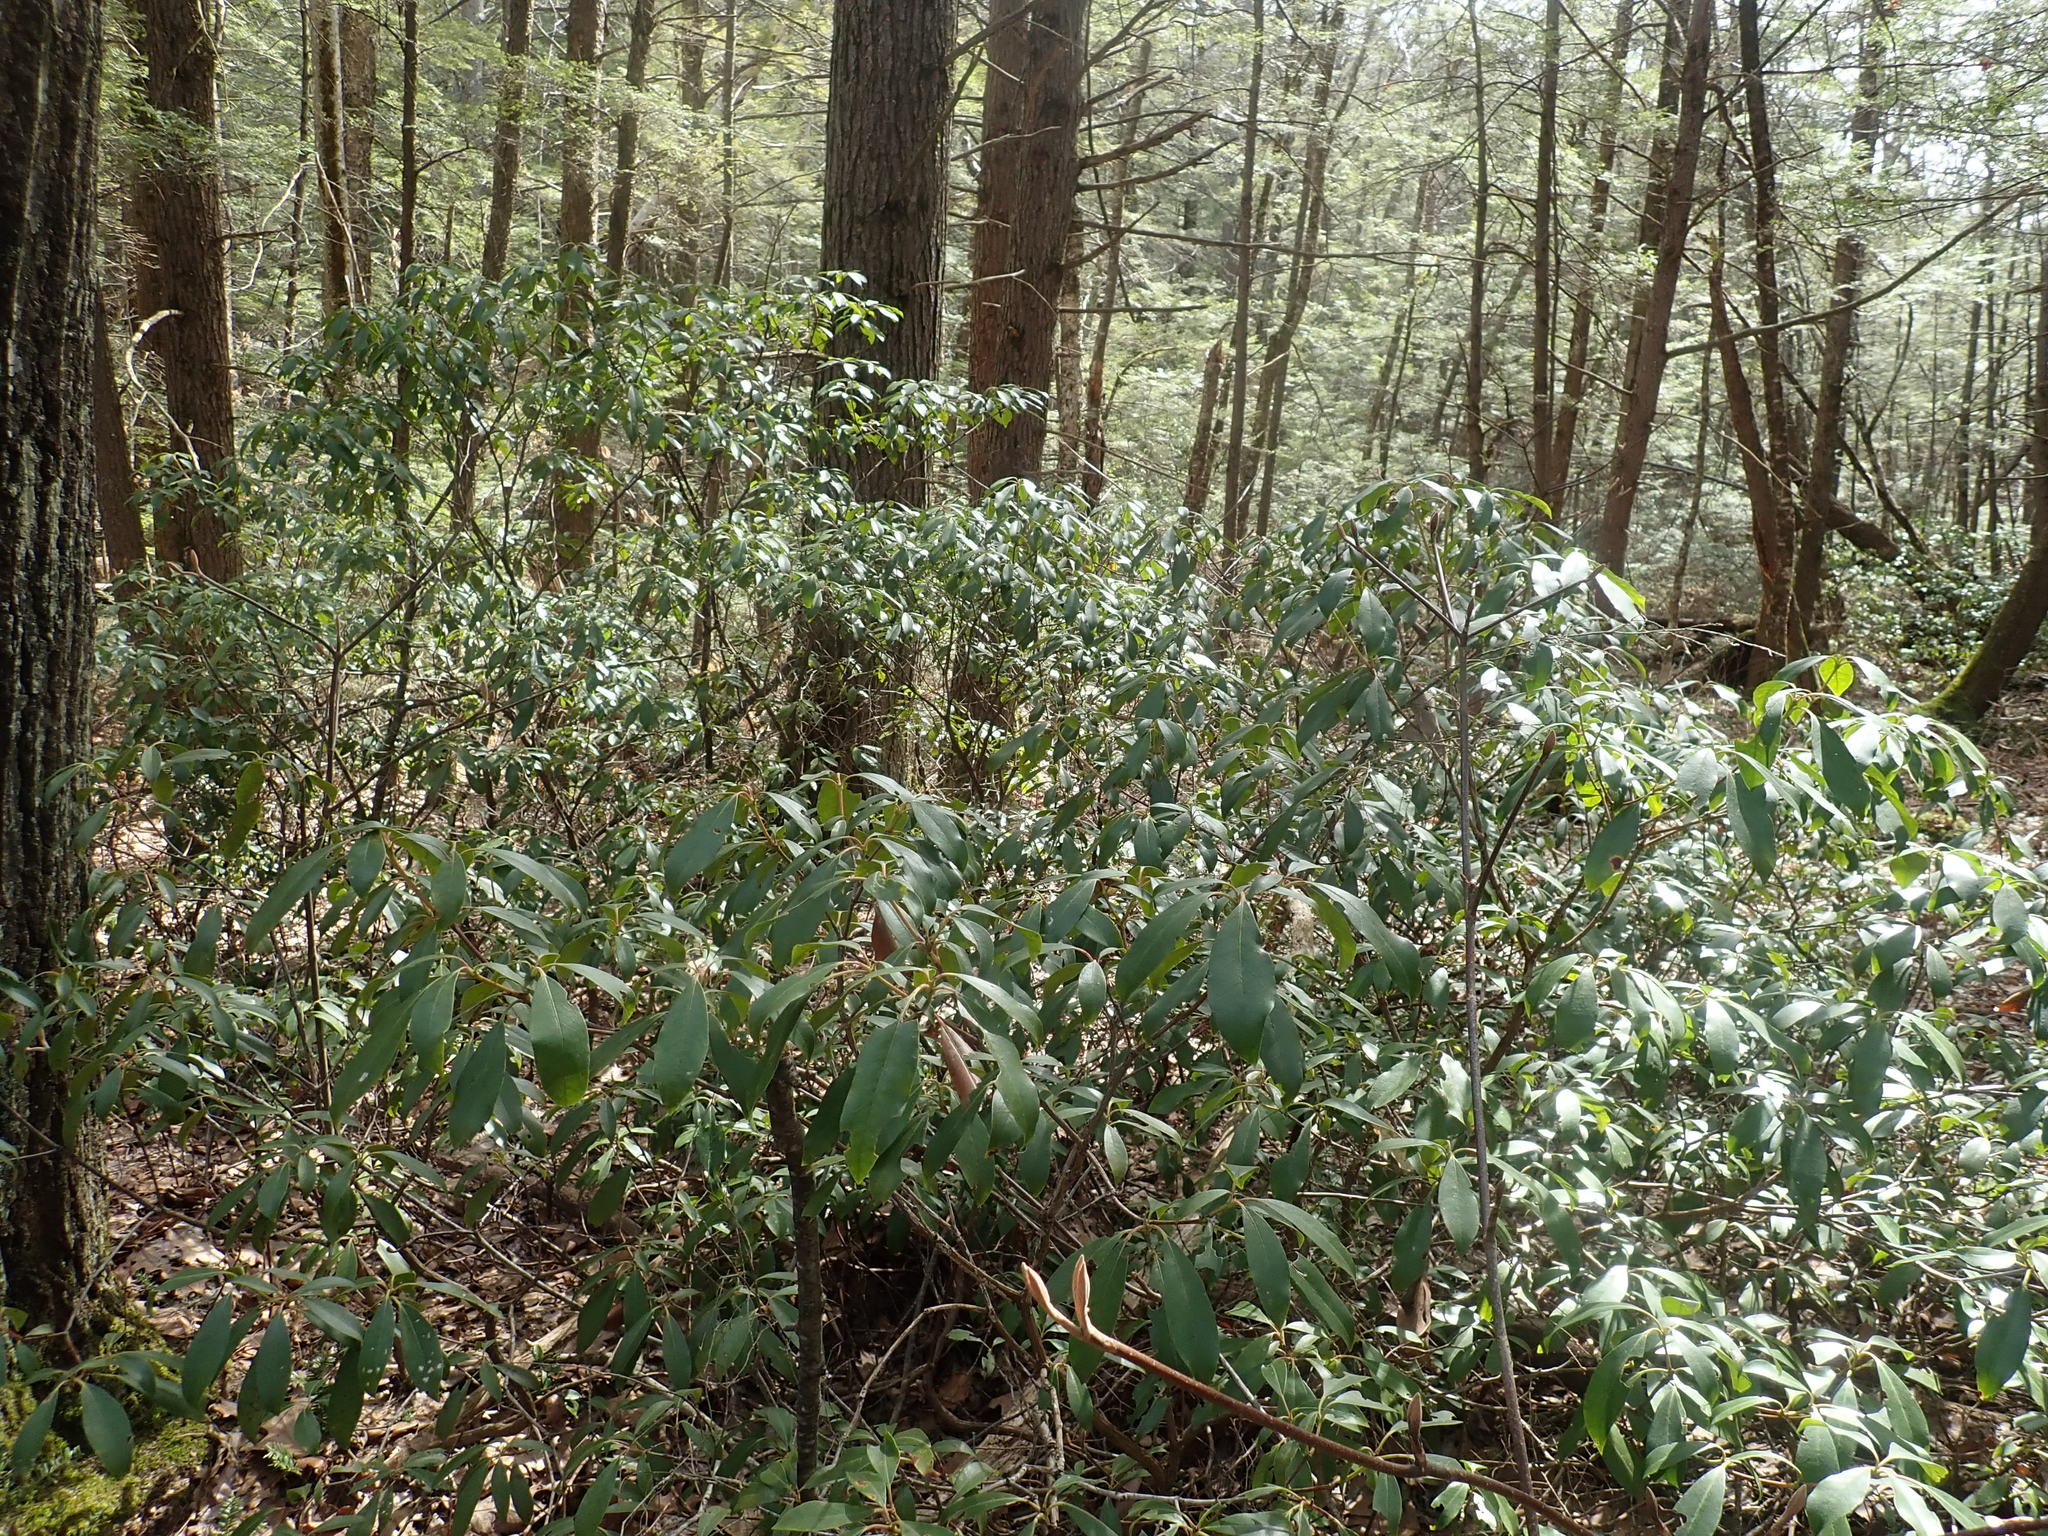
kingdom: Plantae
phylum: Tracheophyta
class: Magnoliopsida
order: Ericales
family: Ericaceae
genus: Kalmia
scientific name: Kalmia latifolia
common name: Mountain-laurel
